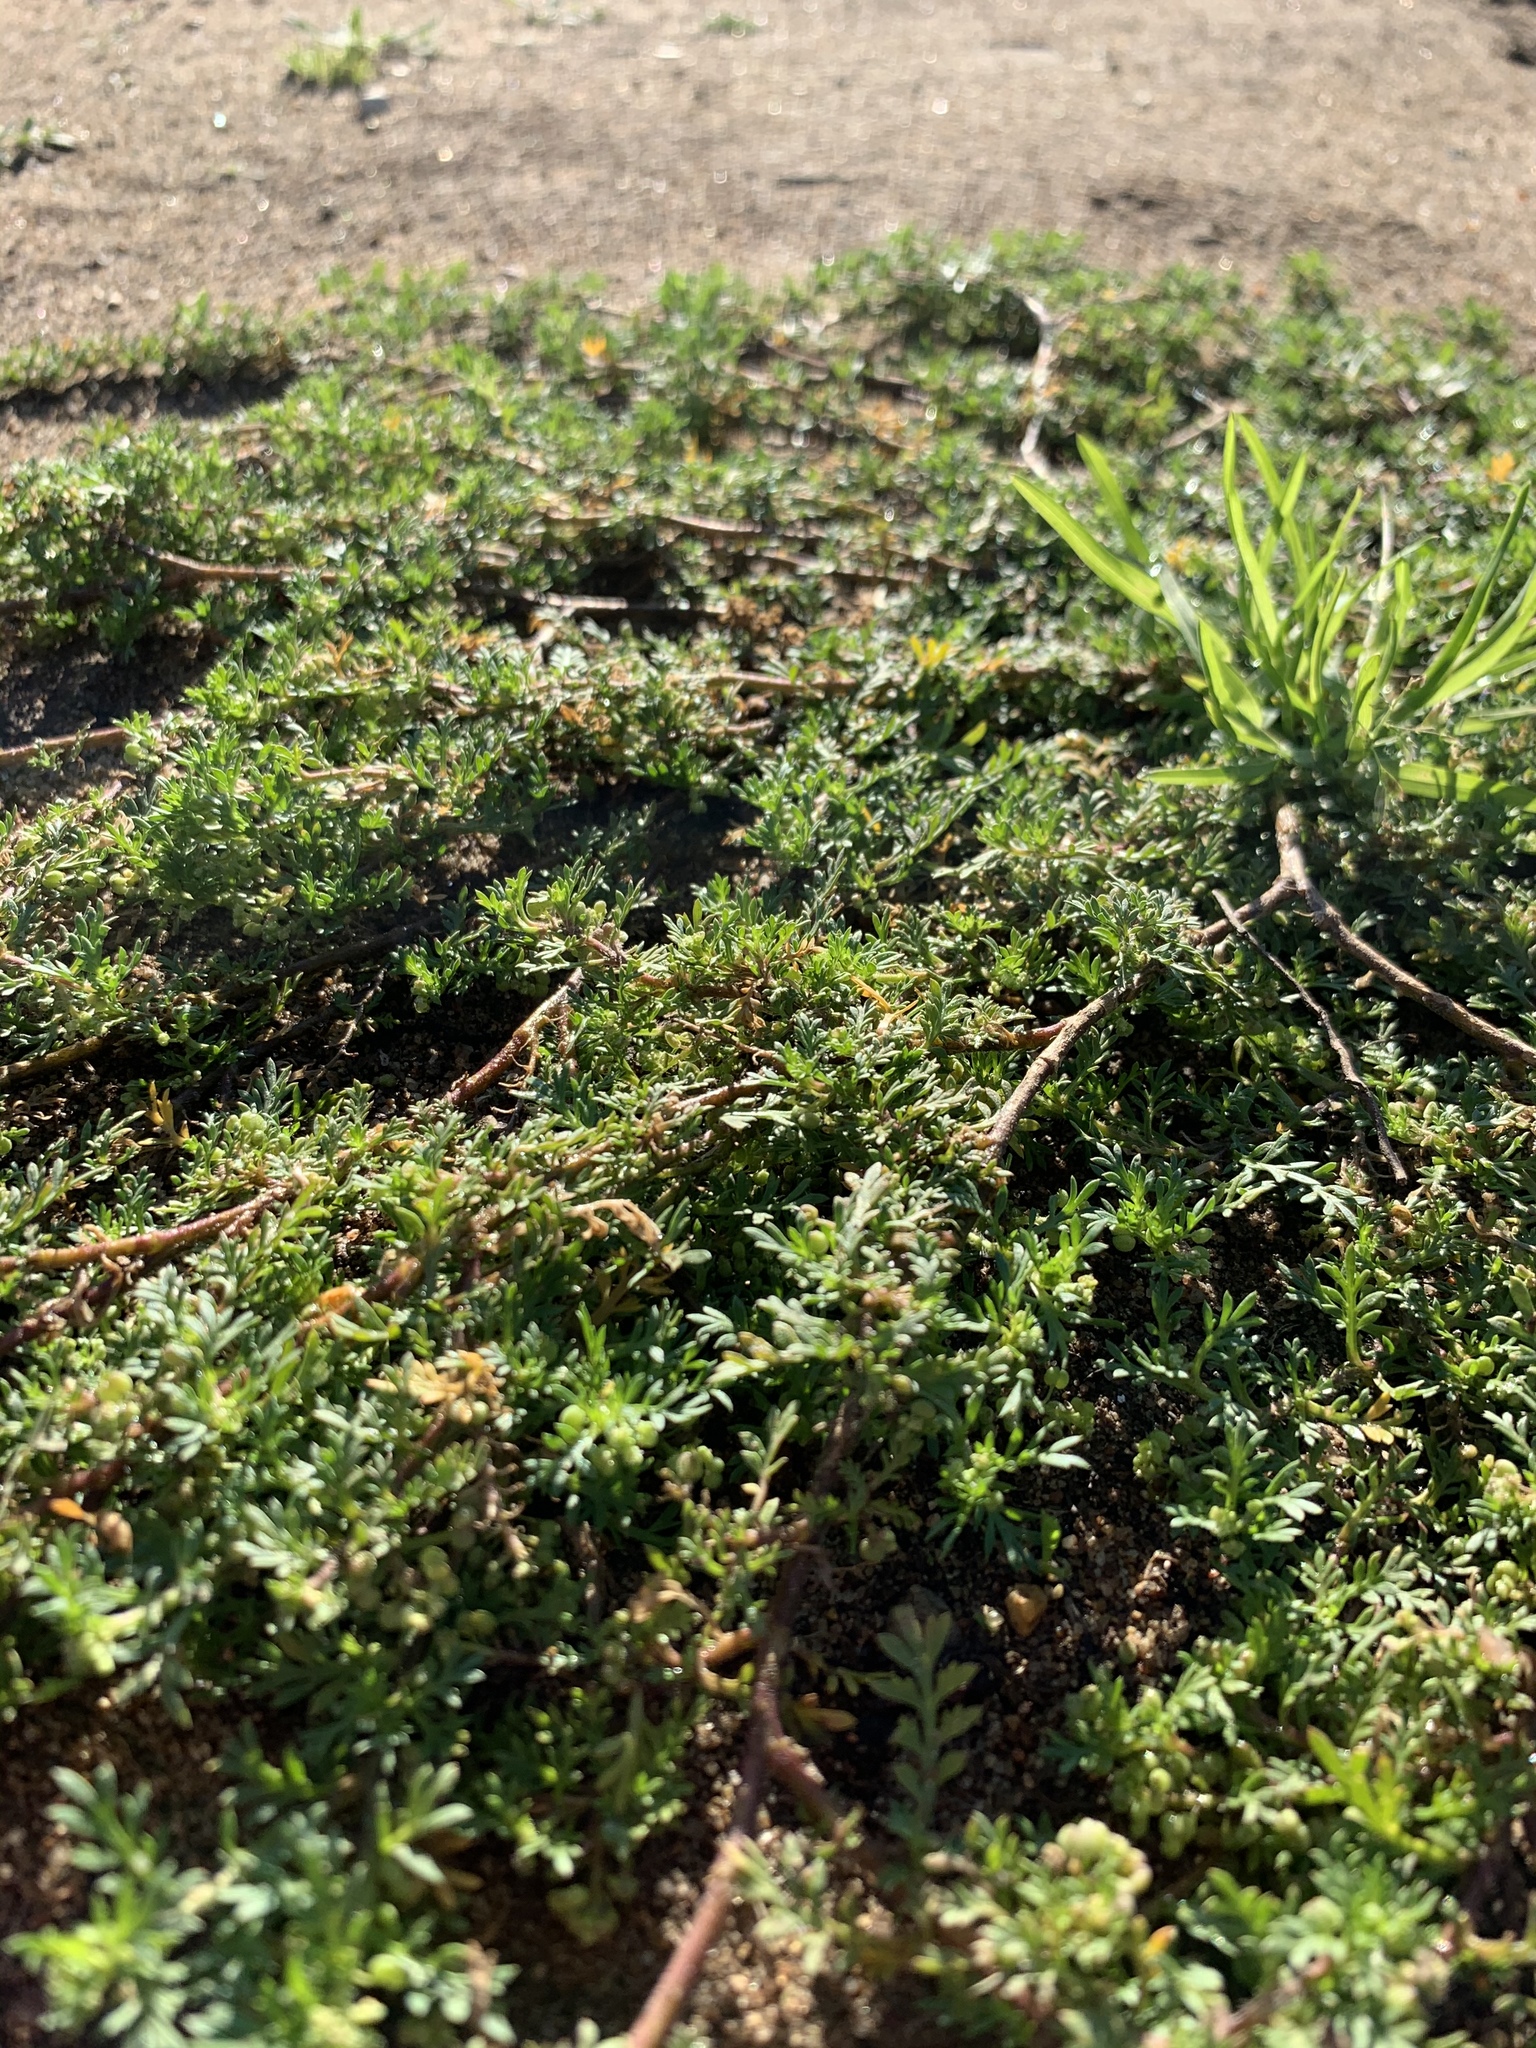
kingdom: Plantae
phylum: Tracheophyta
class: Magnoliopsida
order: Brassicales
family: Brassicaceae
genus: Lepidium
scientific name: Lepidium didymum
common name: Lesser swinecress
